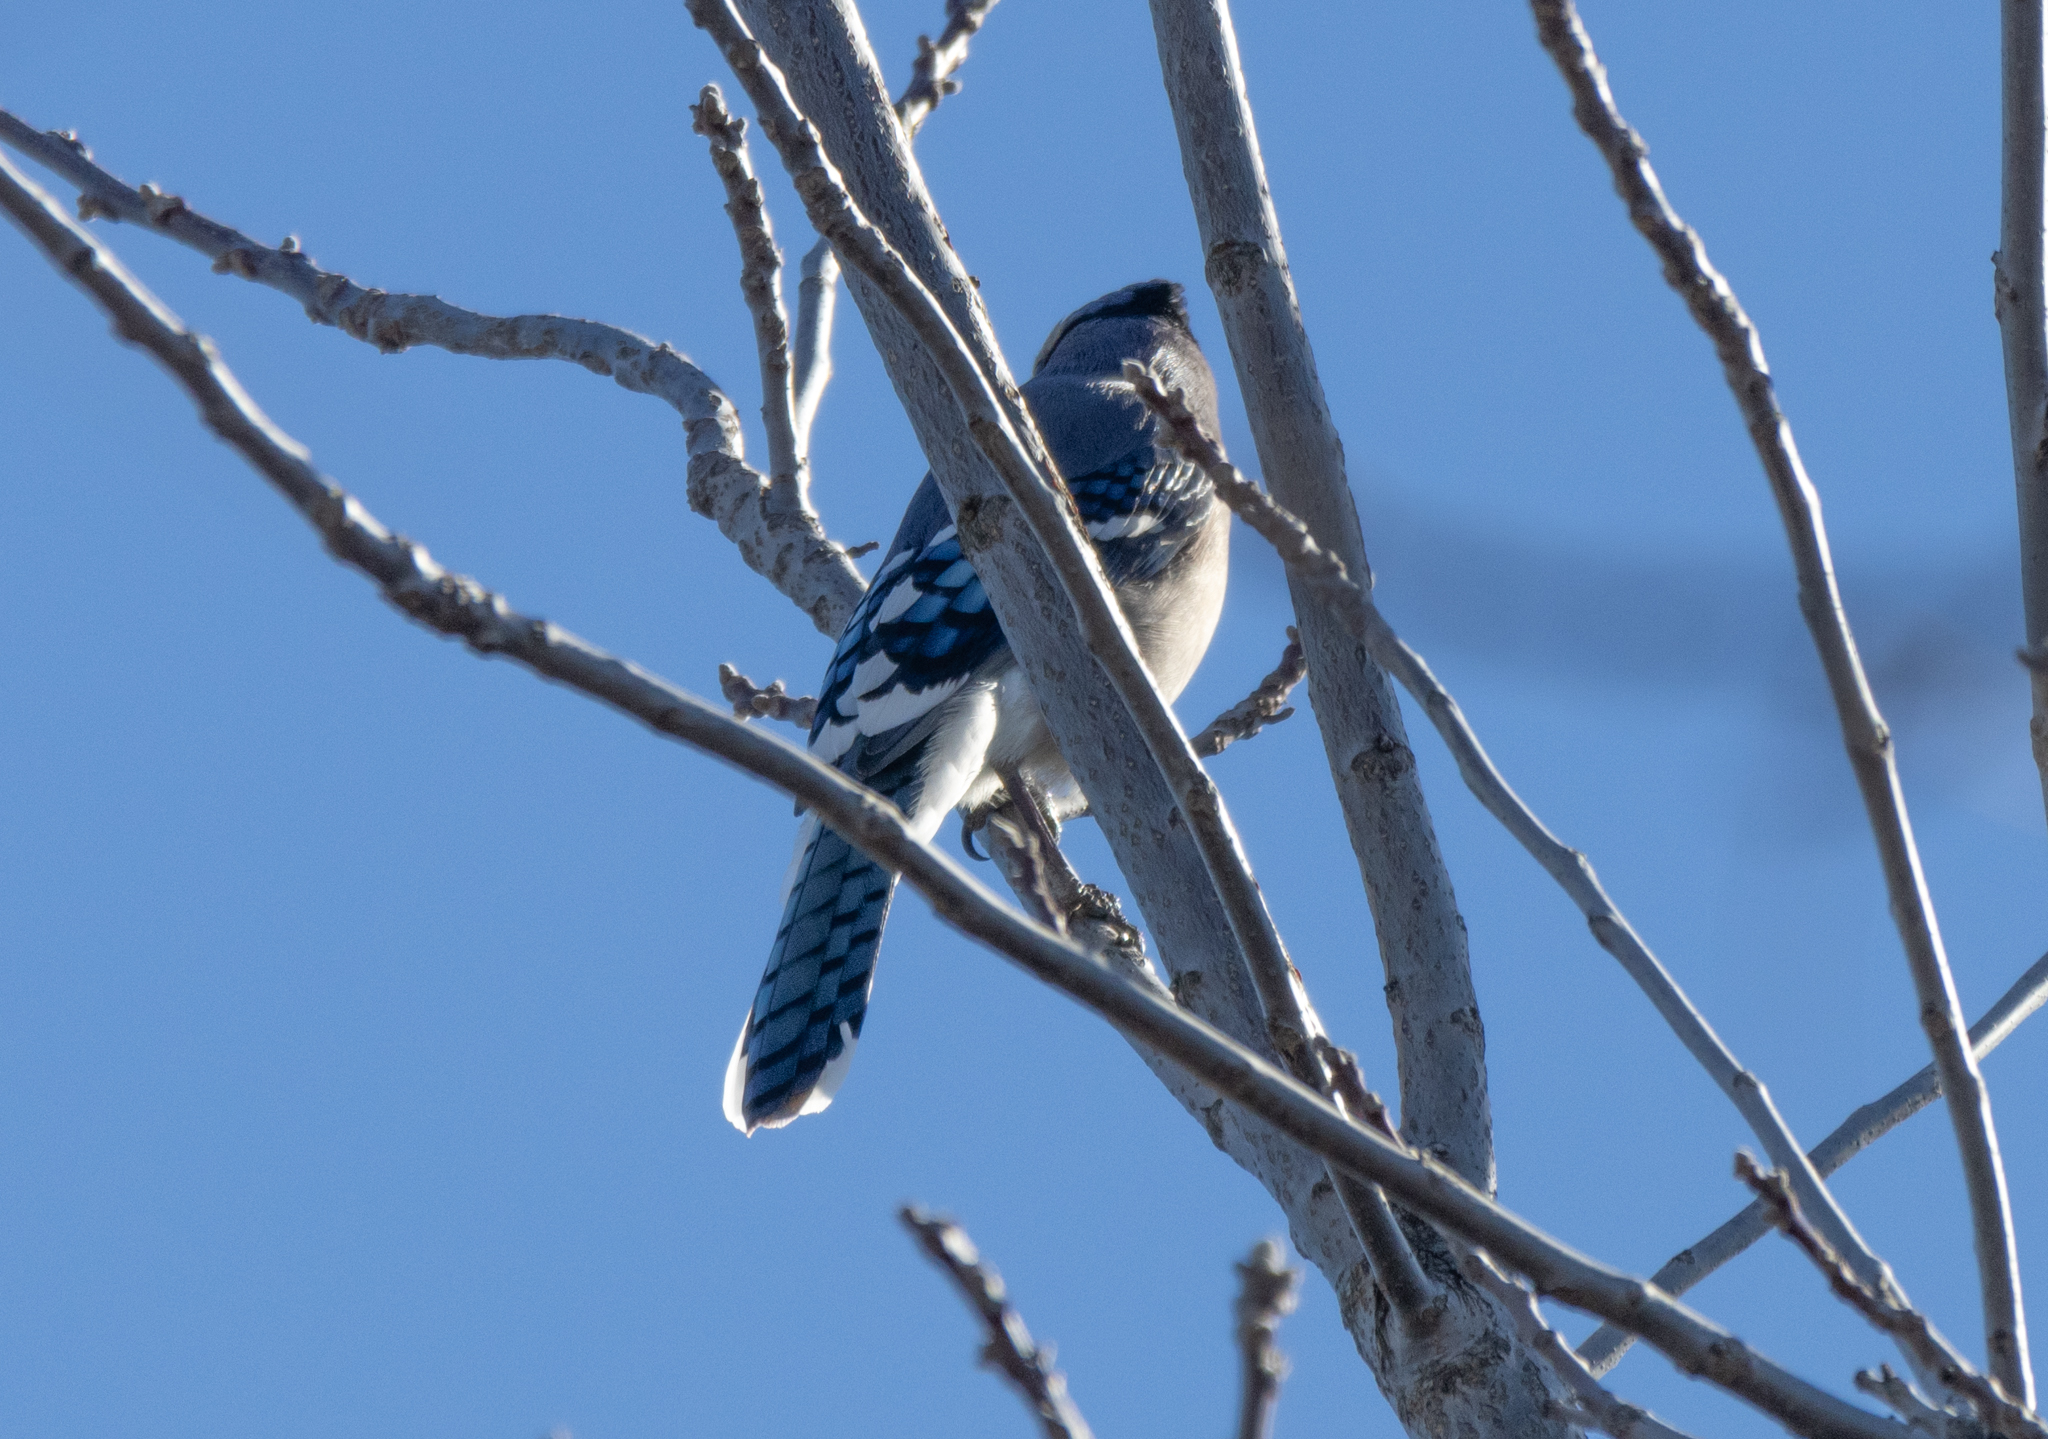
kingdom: Animalia
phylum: Chordata
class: Aves
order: Passeriformes
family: Corvidae
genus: Cyanocitta
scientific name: Cyanocitta cristata
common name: Blue jay
